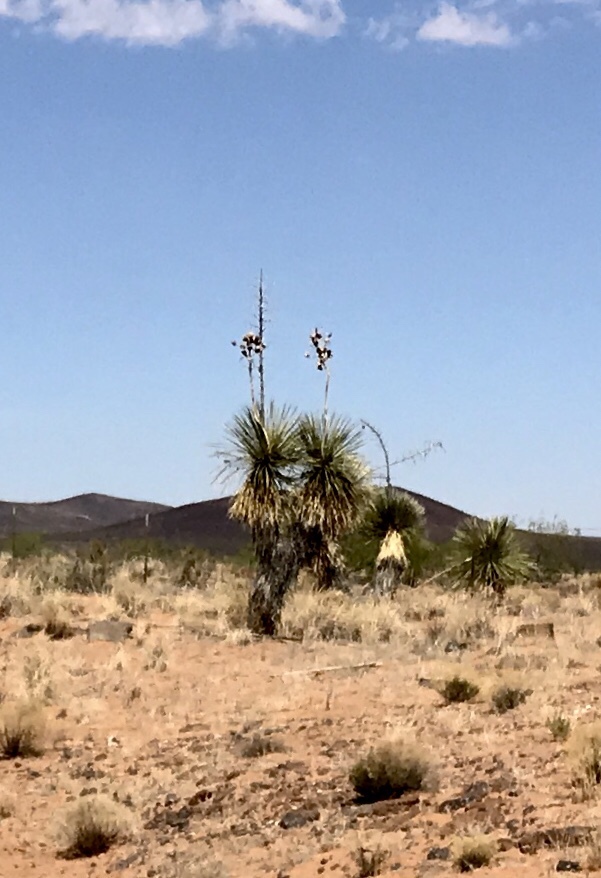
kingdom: Plantae
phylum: Tracheophyta
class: Liliopsida
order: Asparagales
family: Asparagaceae
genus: Yucca
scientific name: Yucca elata
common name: Palmella
